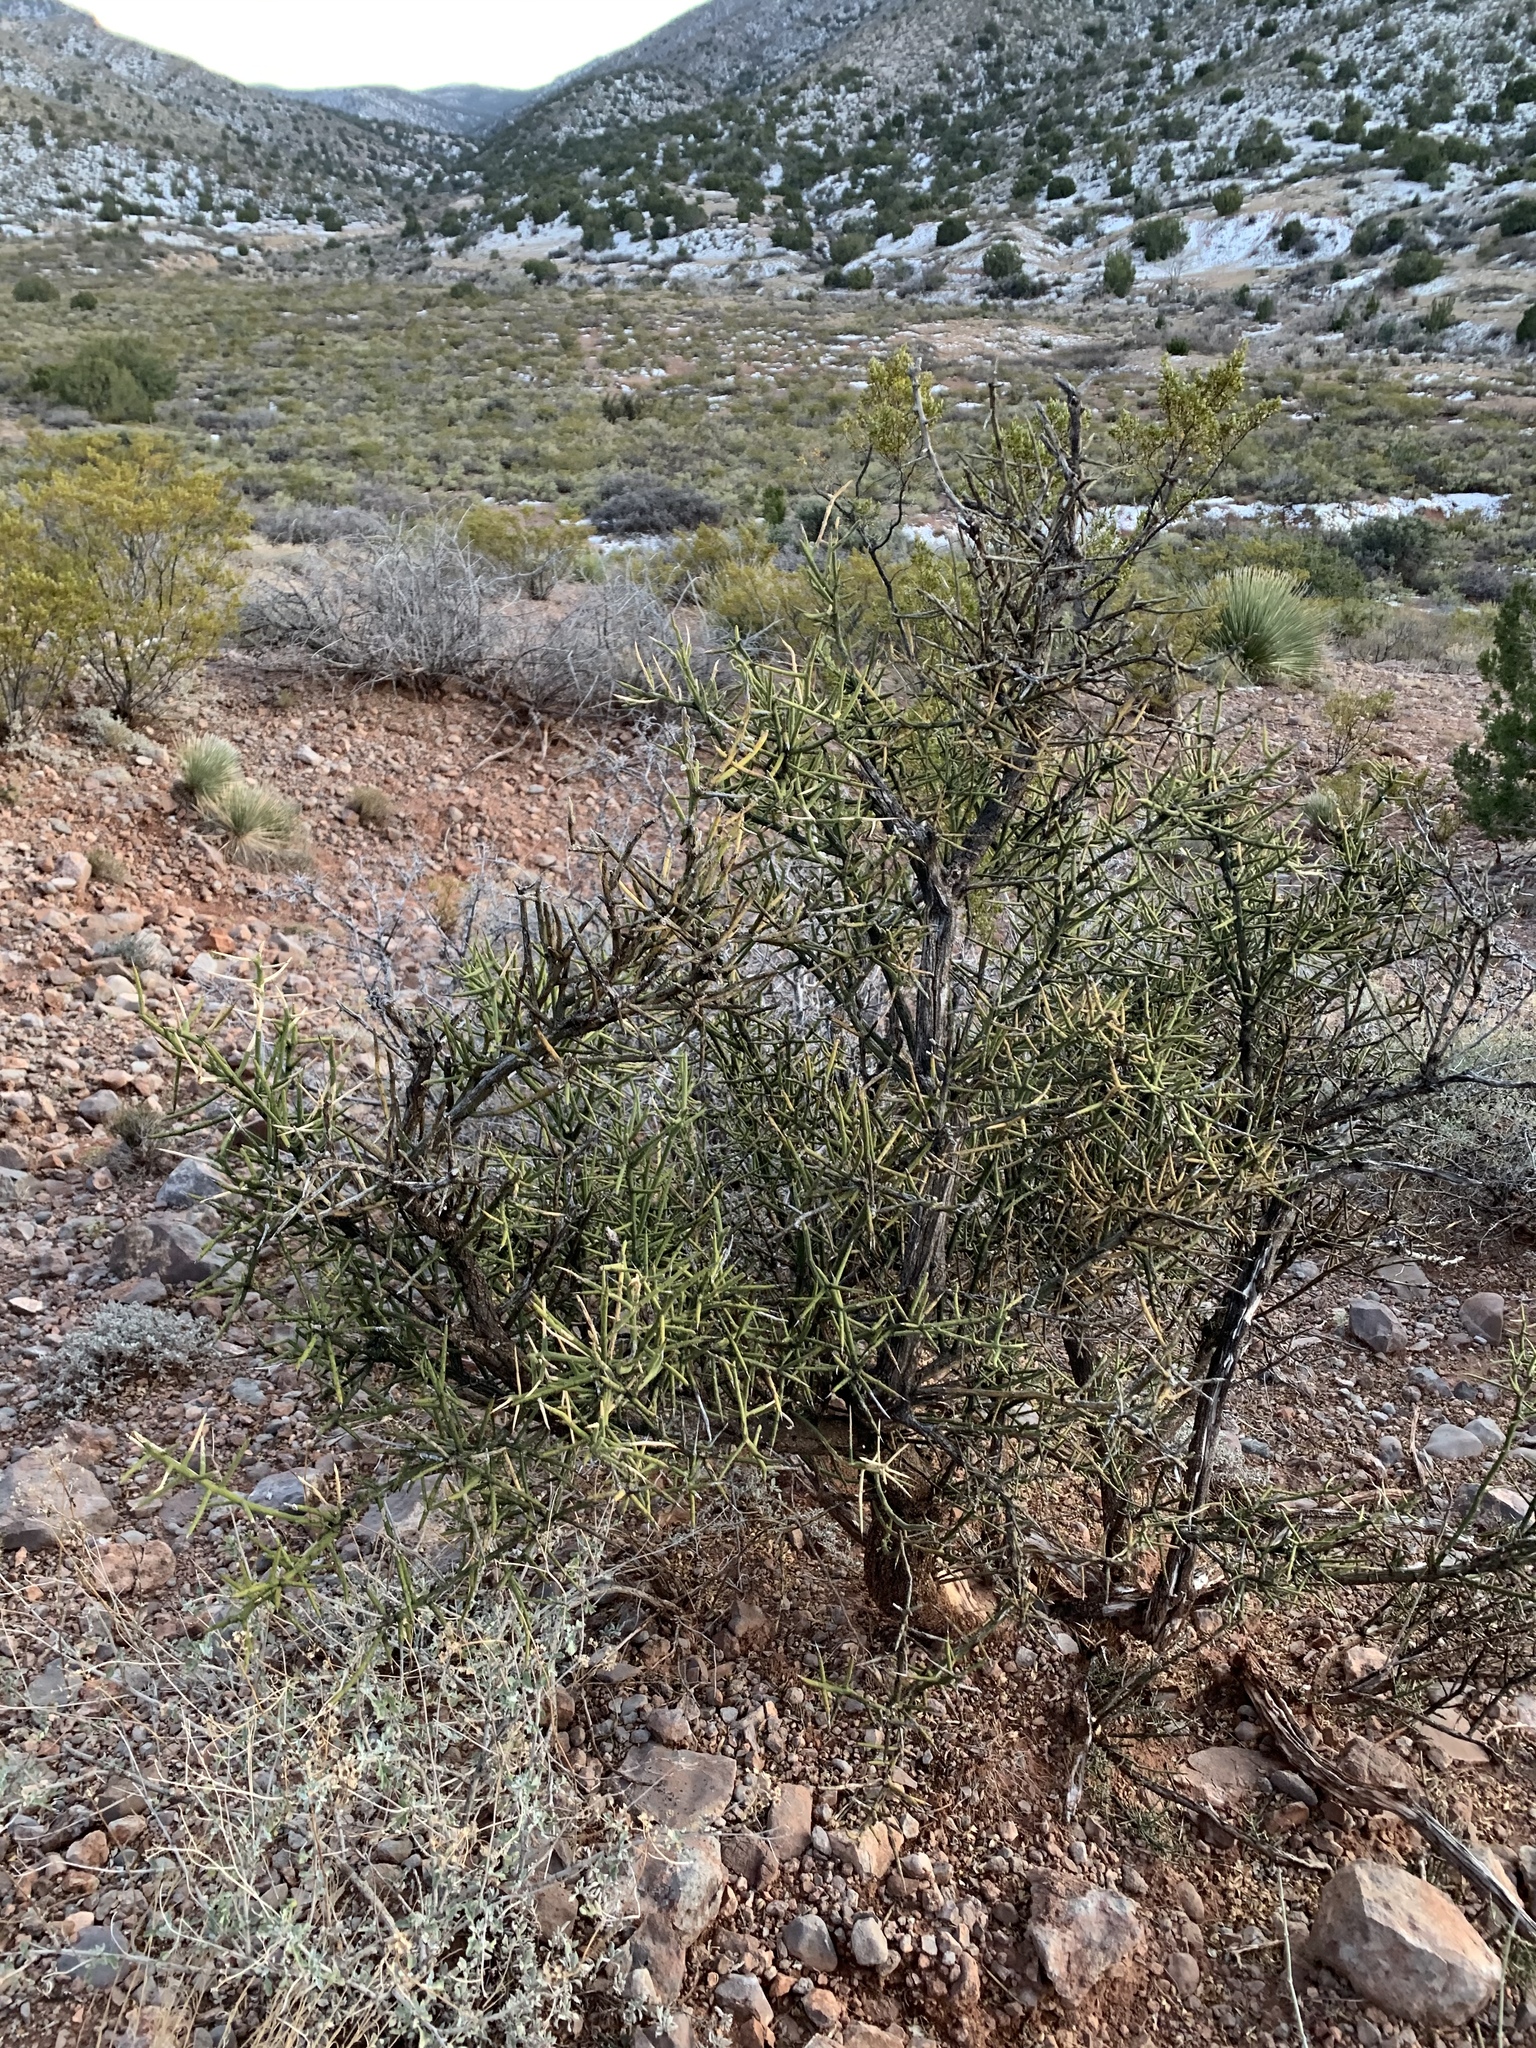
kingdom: Plantae
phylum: Tracheophyta
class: Magnoliopsida
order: Brassicales
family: Koeberliniaceae
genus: Koeberlinia
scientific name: Koeberlinia spinosa
